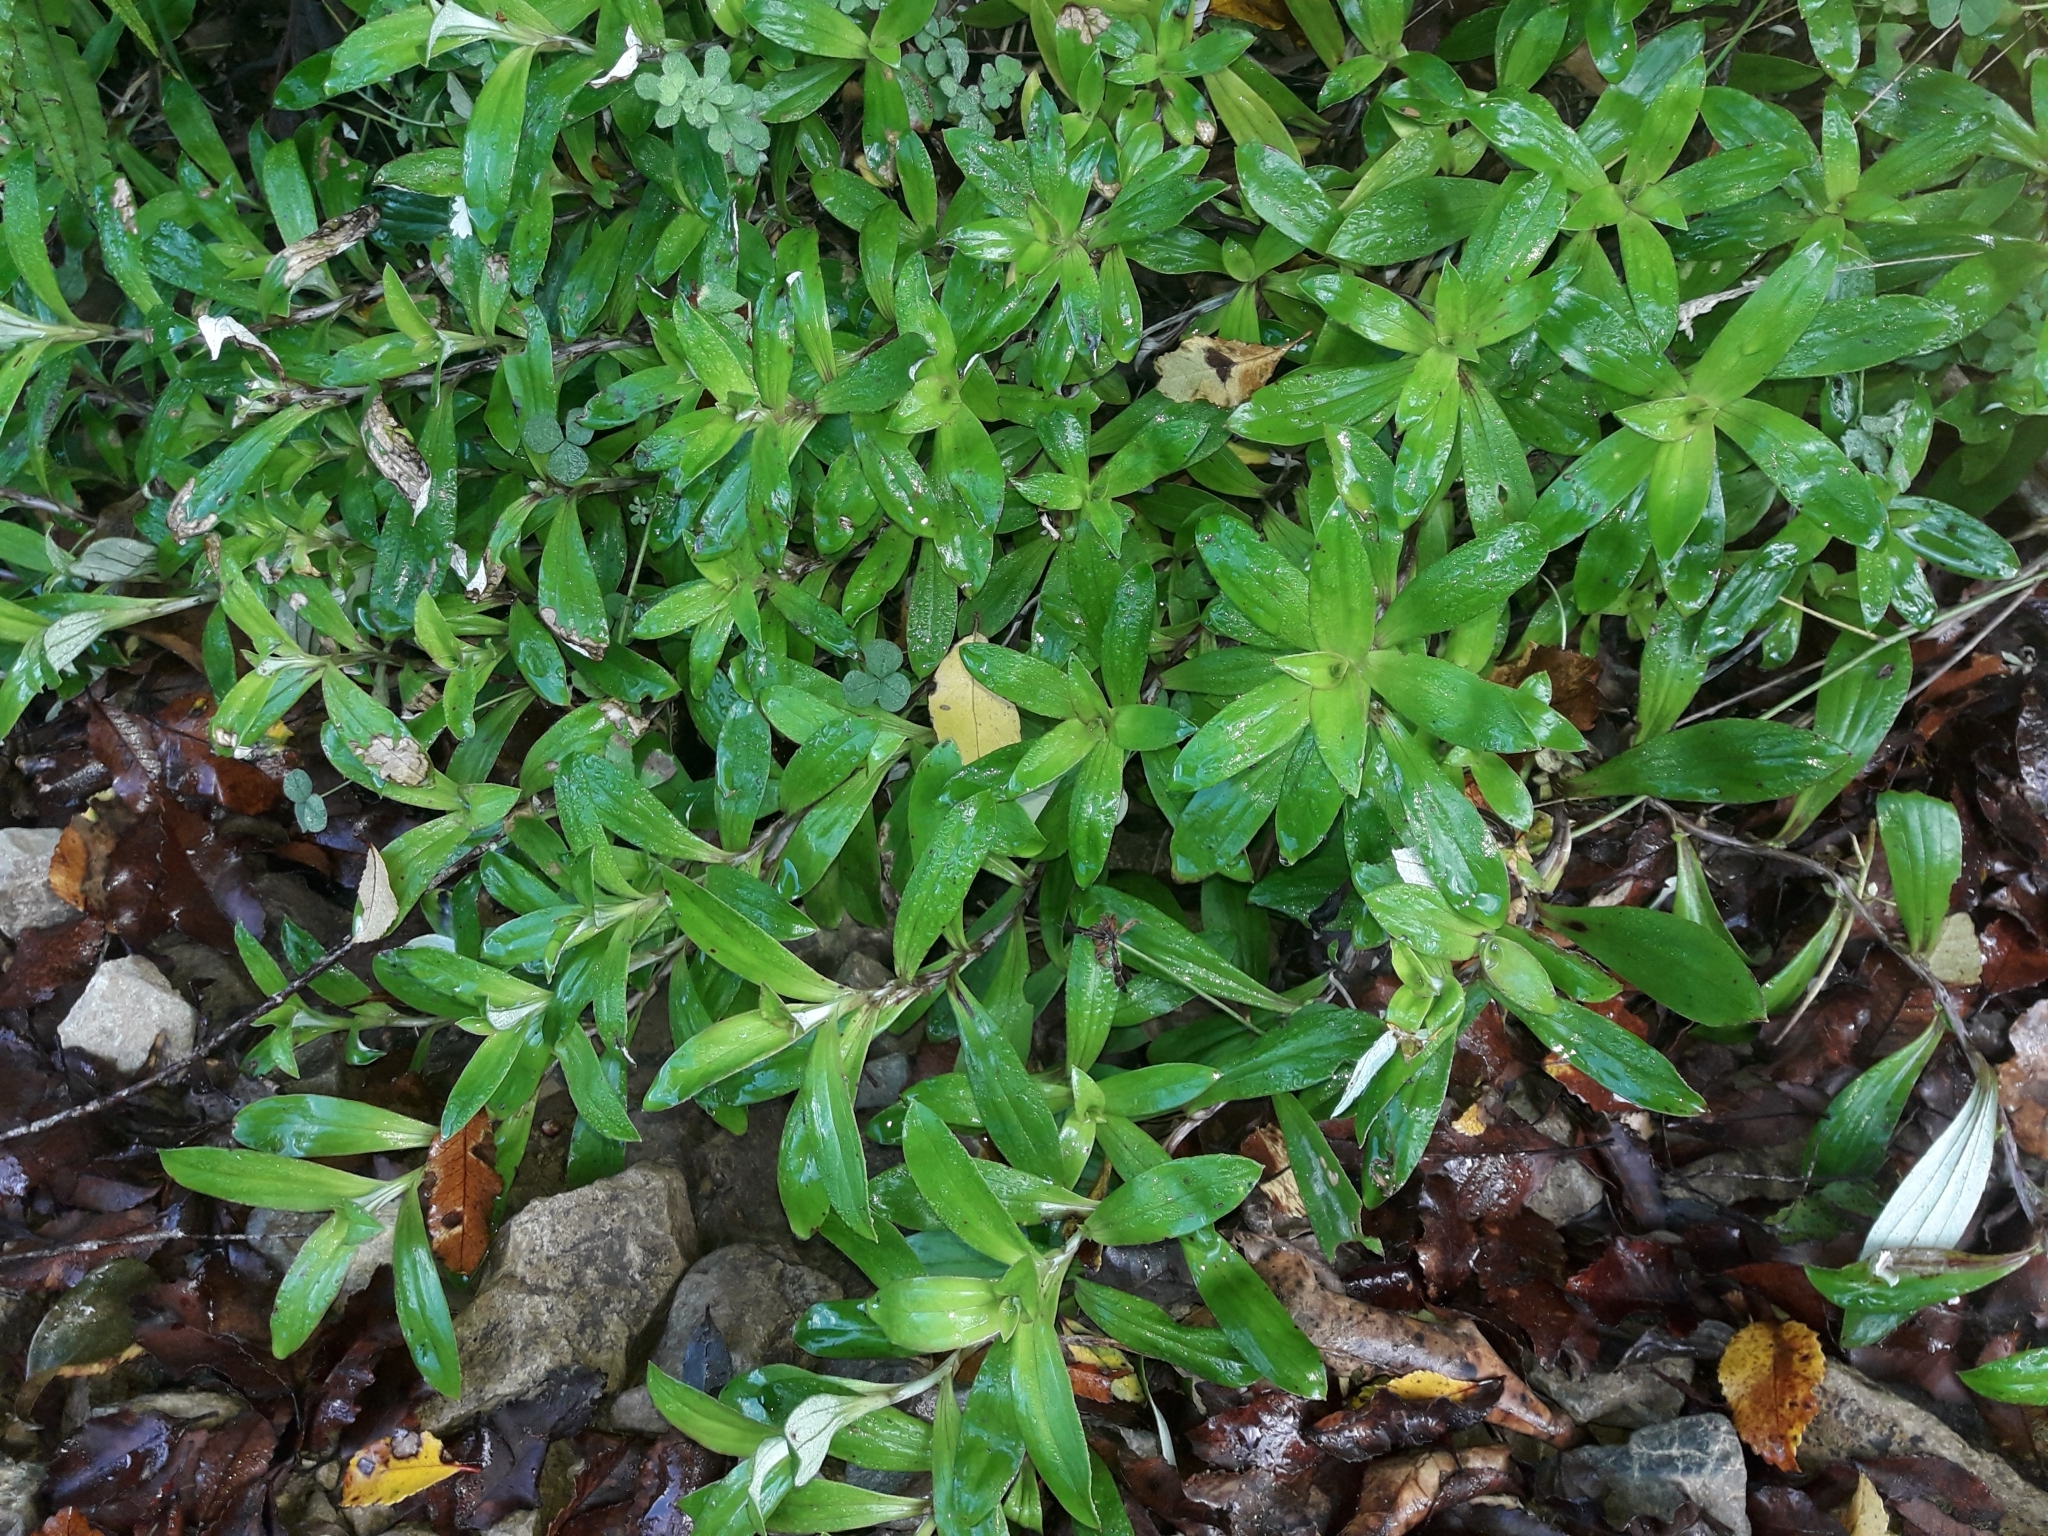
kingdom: Plantae
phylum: Tracheophyta
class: Magnoliopsida
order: Asterales
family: Asteraceae
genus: Anaphalioides
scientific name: Anaphalioides trinervis
